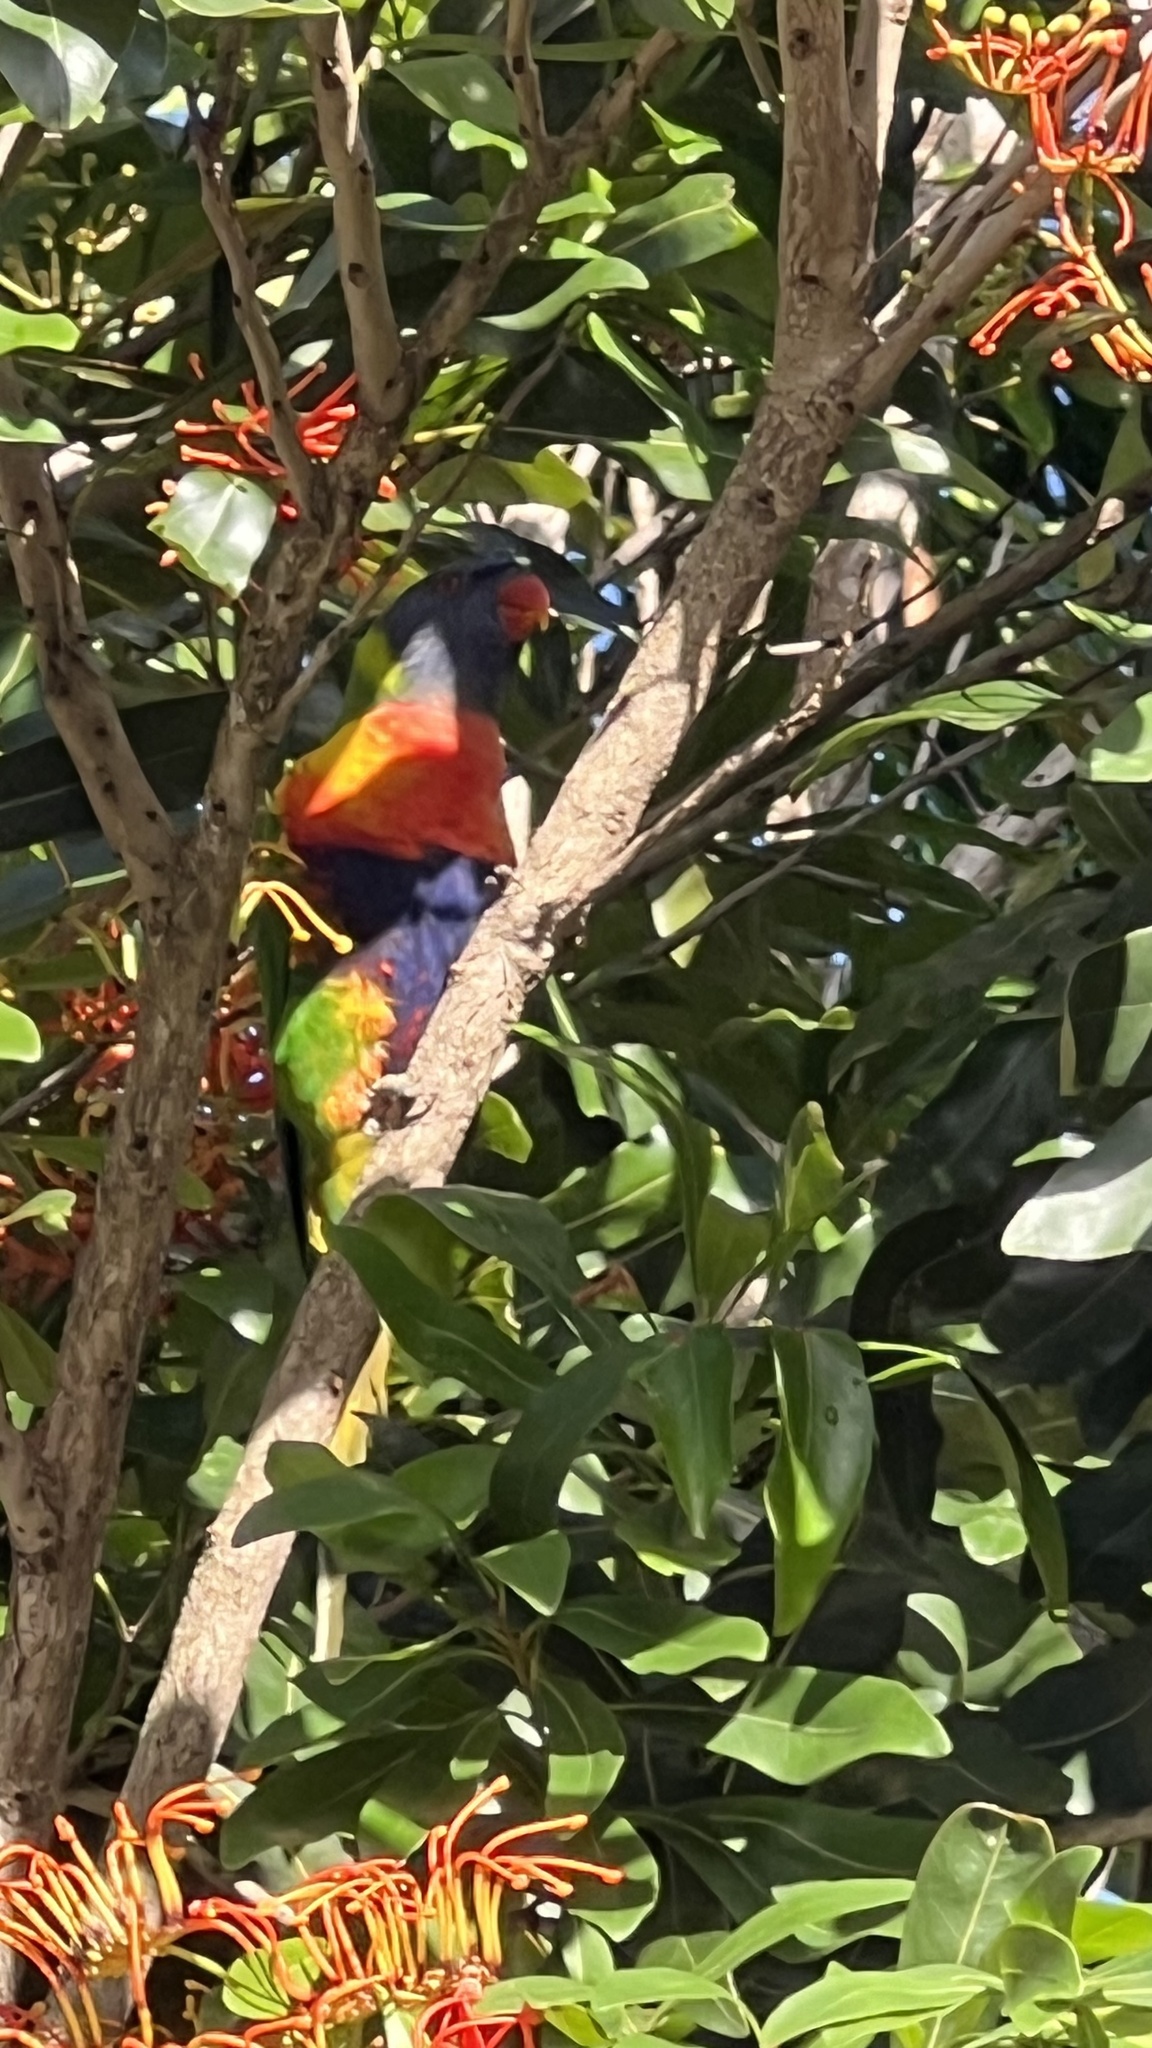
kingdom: Animalia
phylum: Chordata
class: Aves
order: Psittaciformes
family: Psittacidae
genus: Trichoglossus
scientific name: Trichoglossus haematodus
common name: Coconut lorikeet
